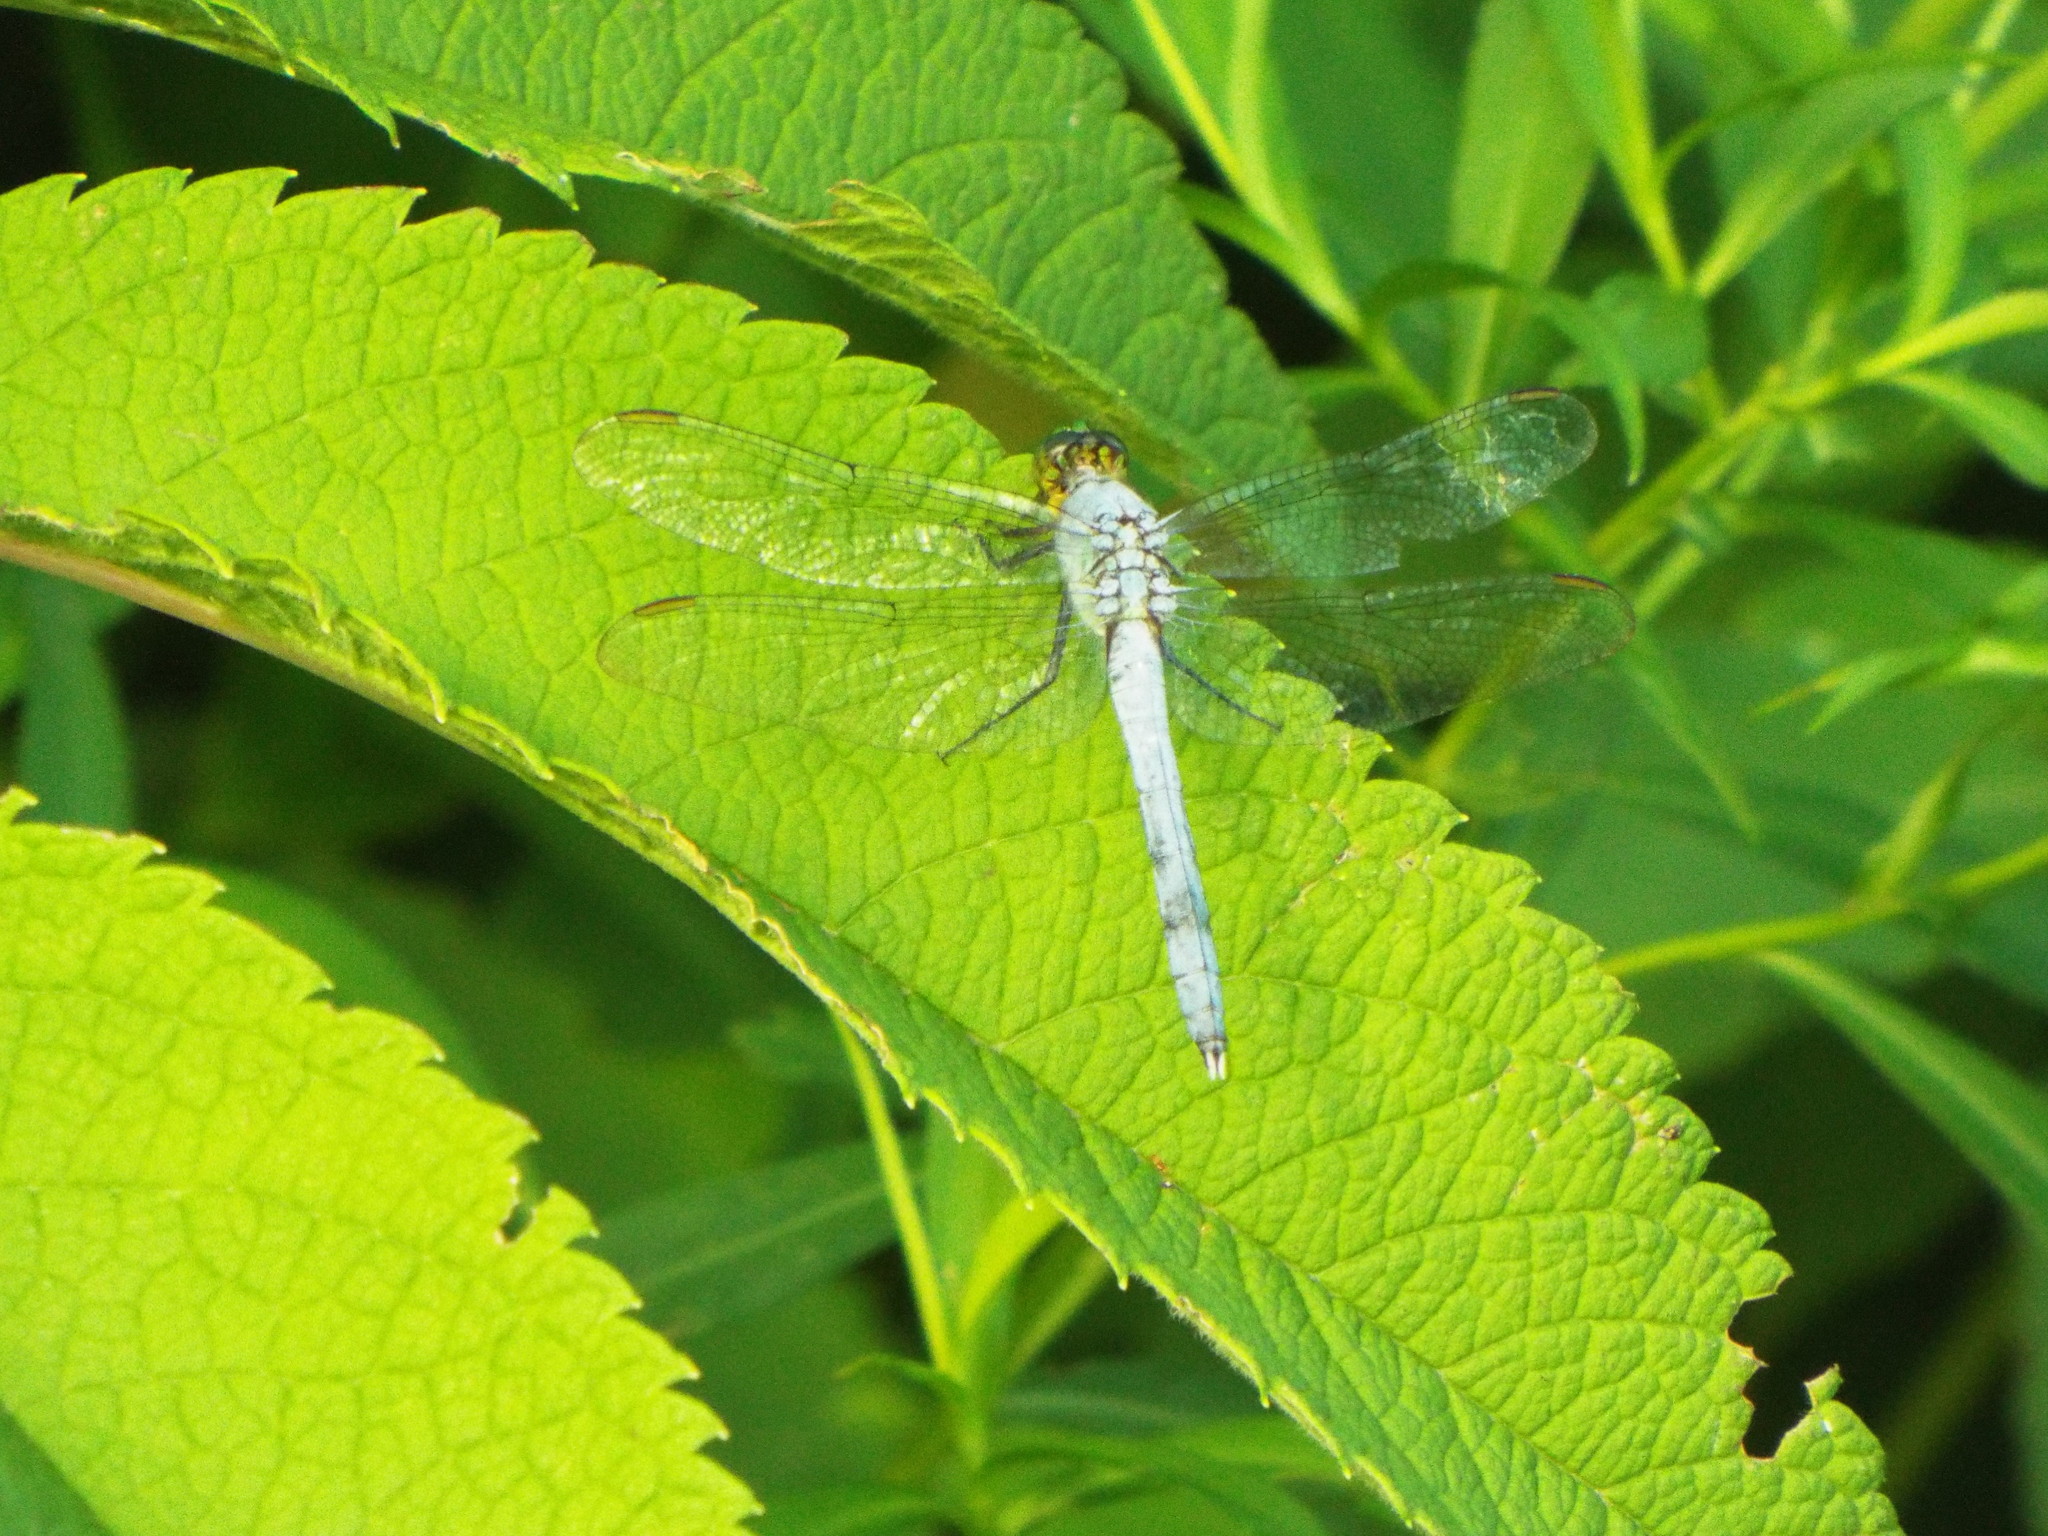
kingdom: Animalia
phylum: Arthropoda
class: Insecta
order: Odonata
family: Libellulidae
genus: Erythemis
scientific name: Erythemis simplicicollis
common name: Eastern pondhawk
